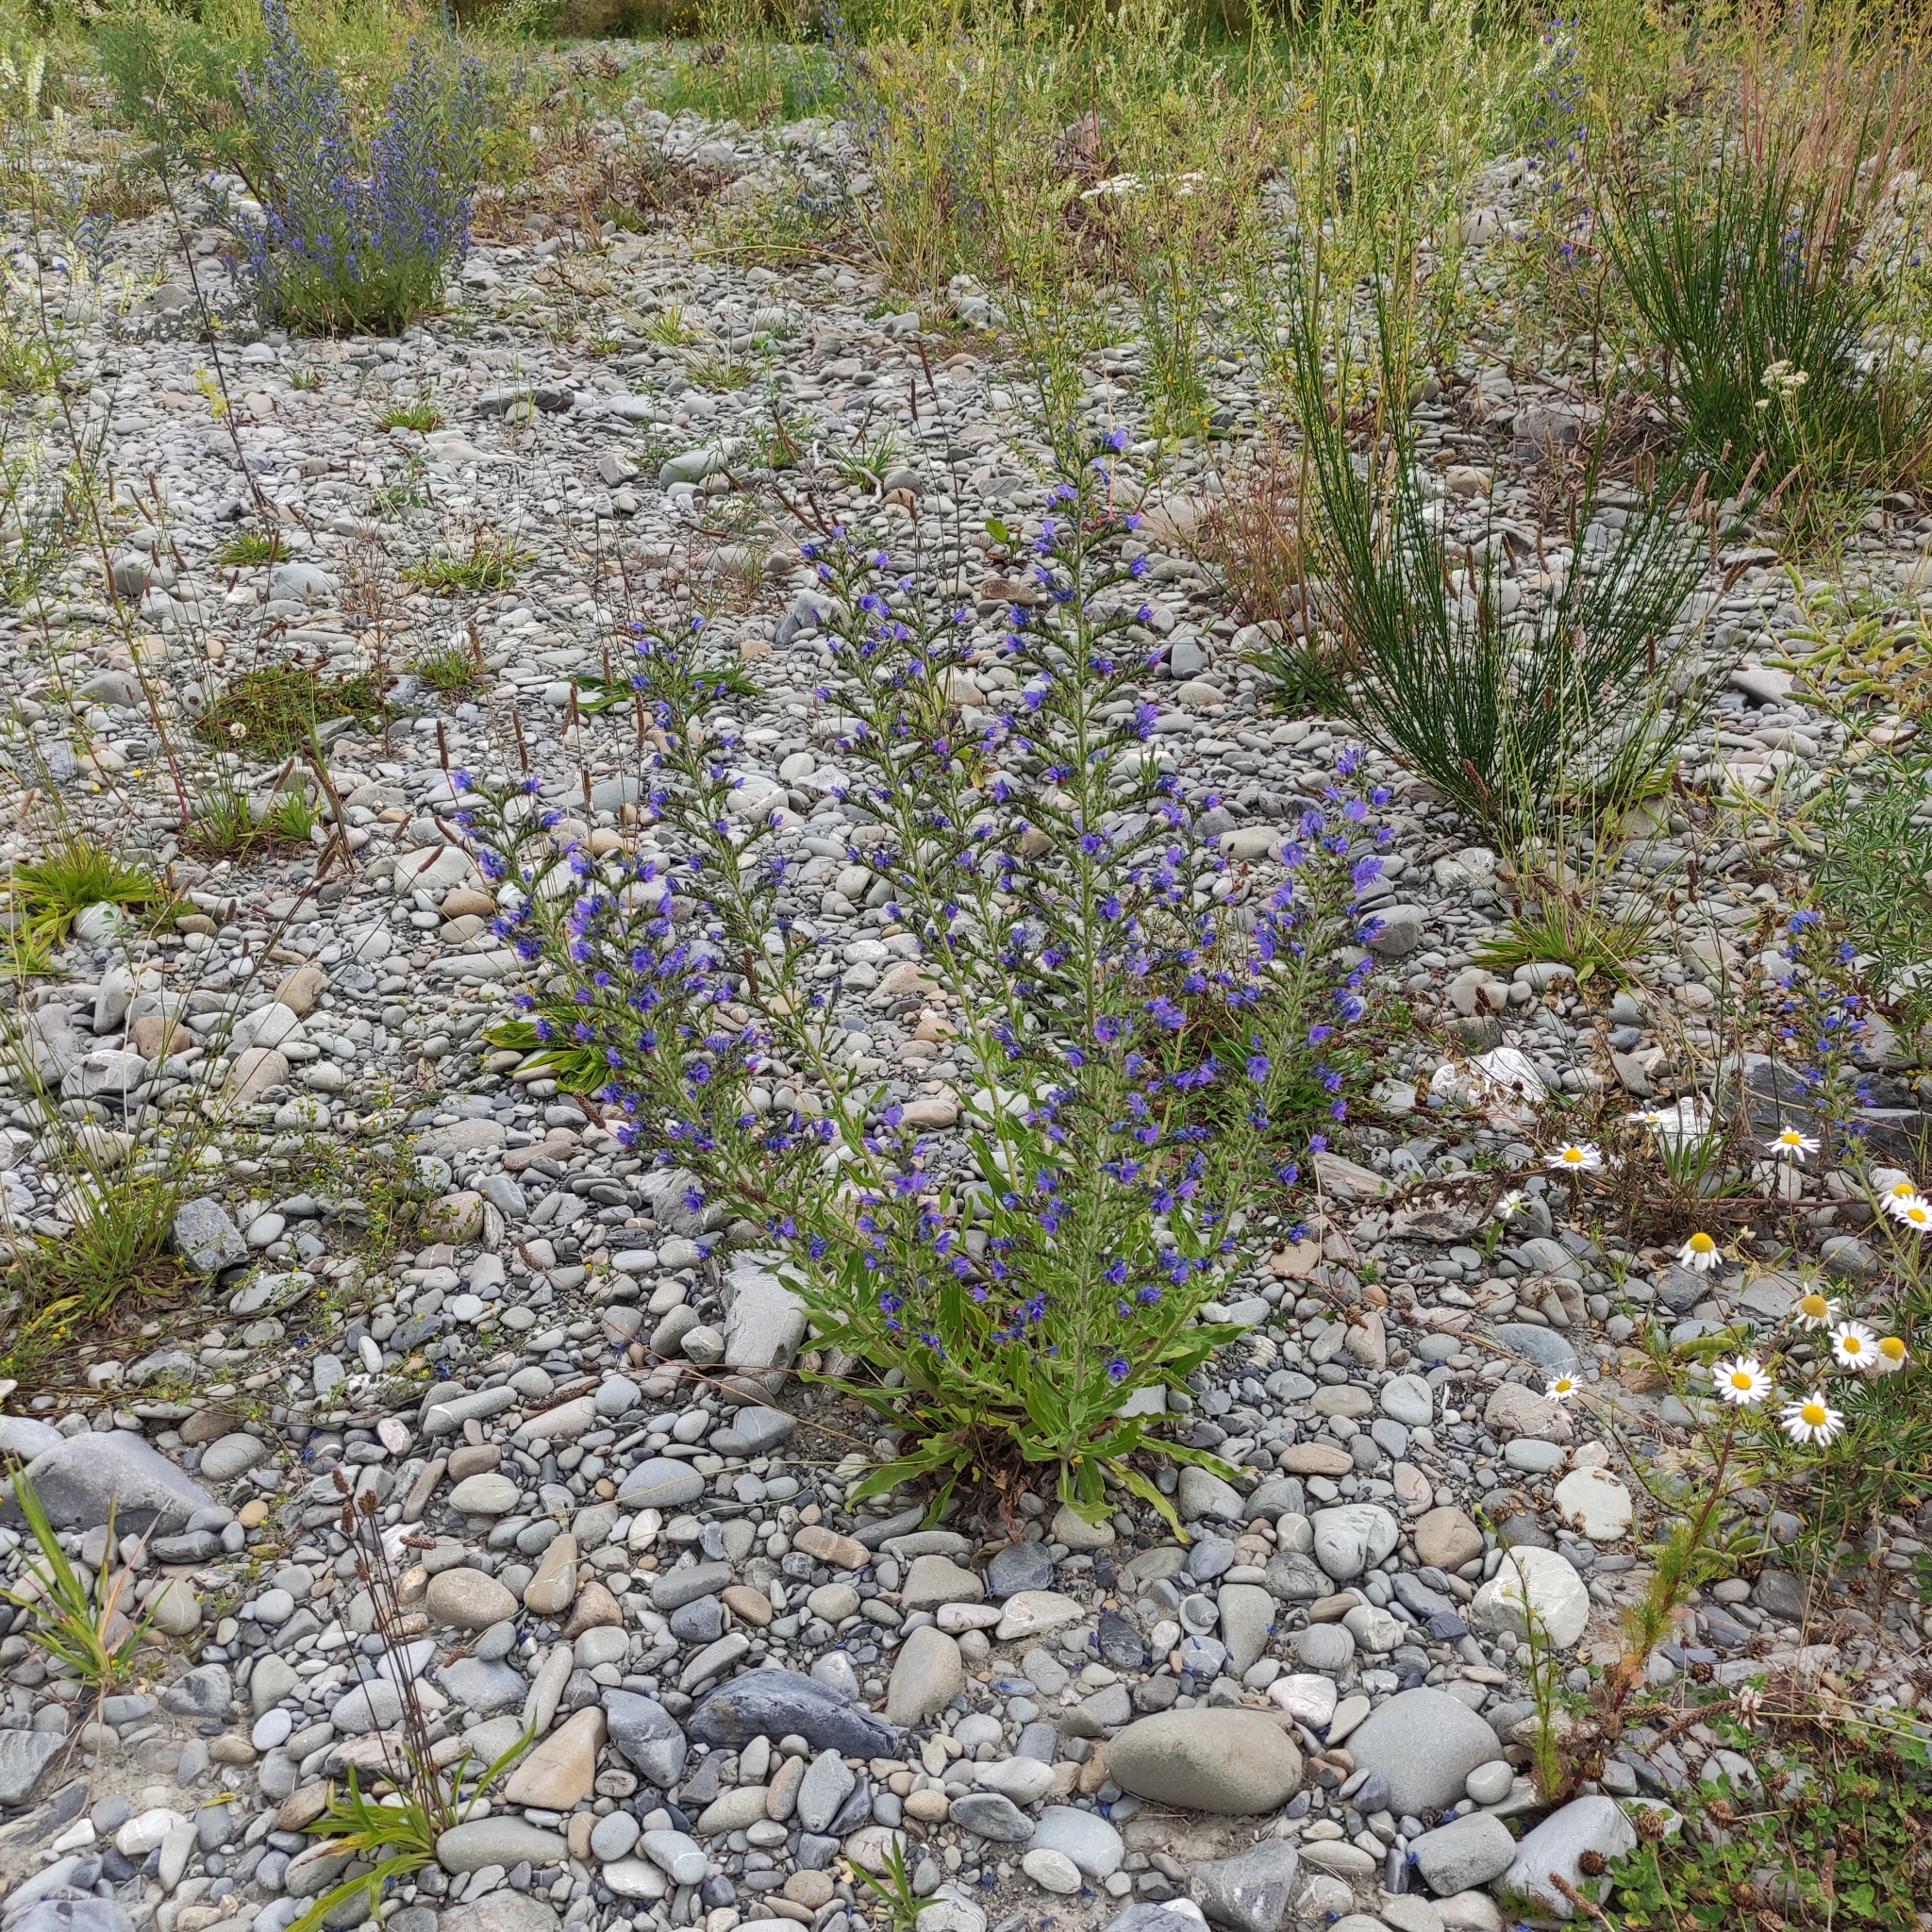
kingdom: Plantae
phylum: Tracheophyta
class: Magnoliopsida
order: Boraginales
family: Boraginaceae
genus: Echium
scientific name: Echium vulgare
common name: Common viper's bugloss
